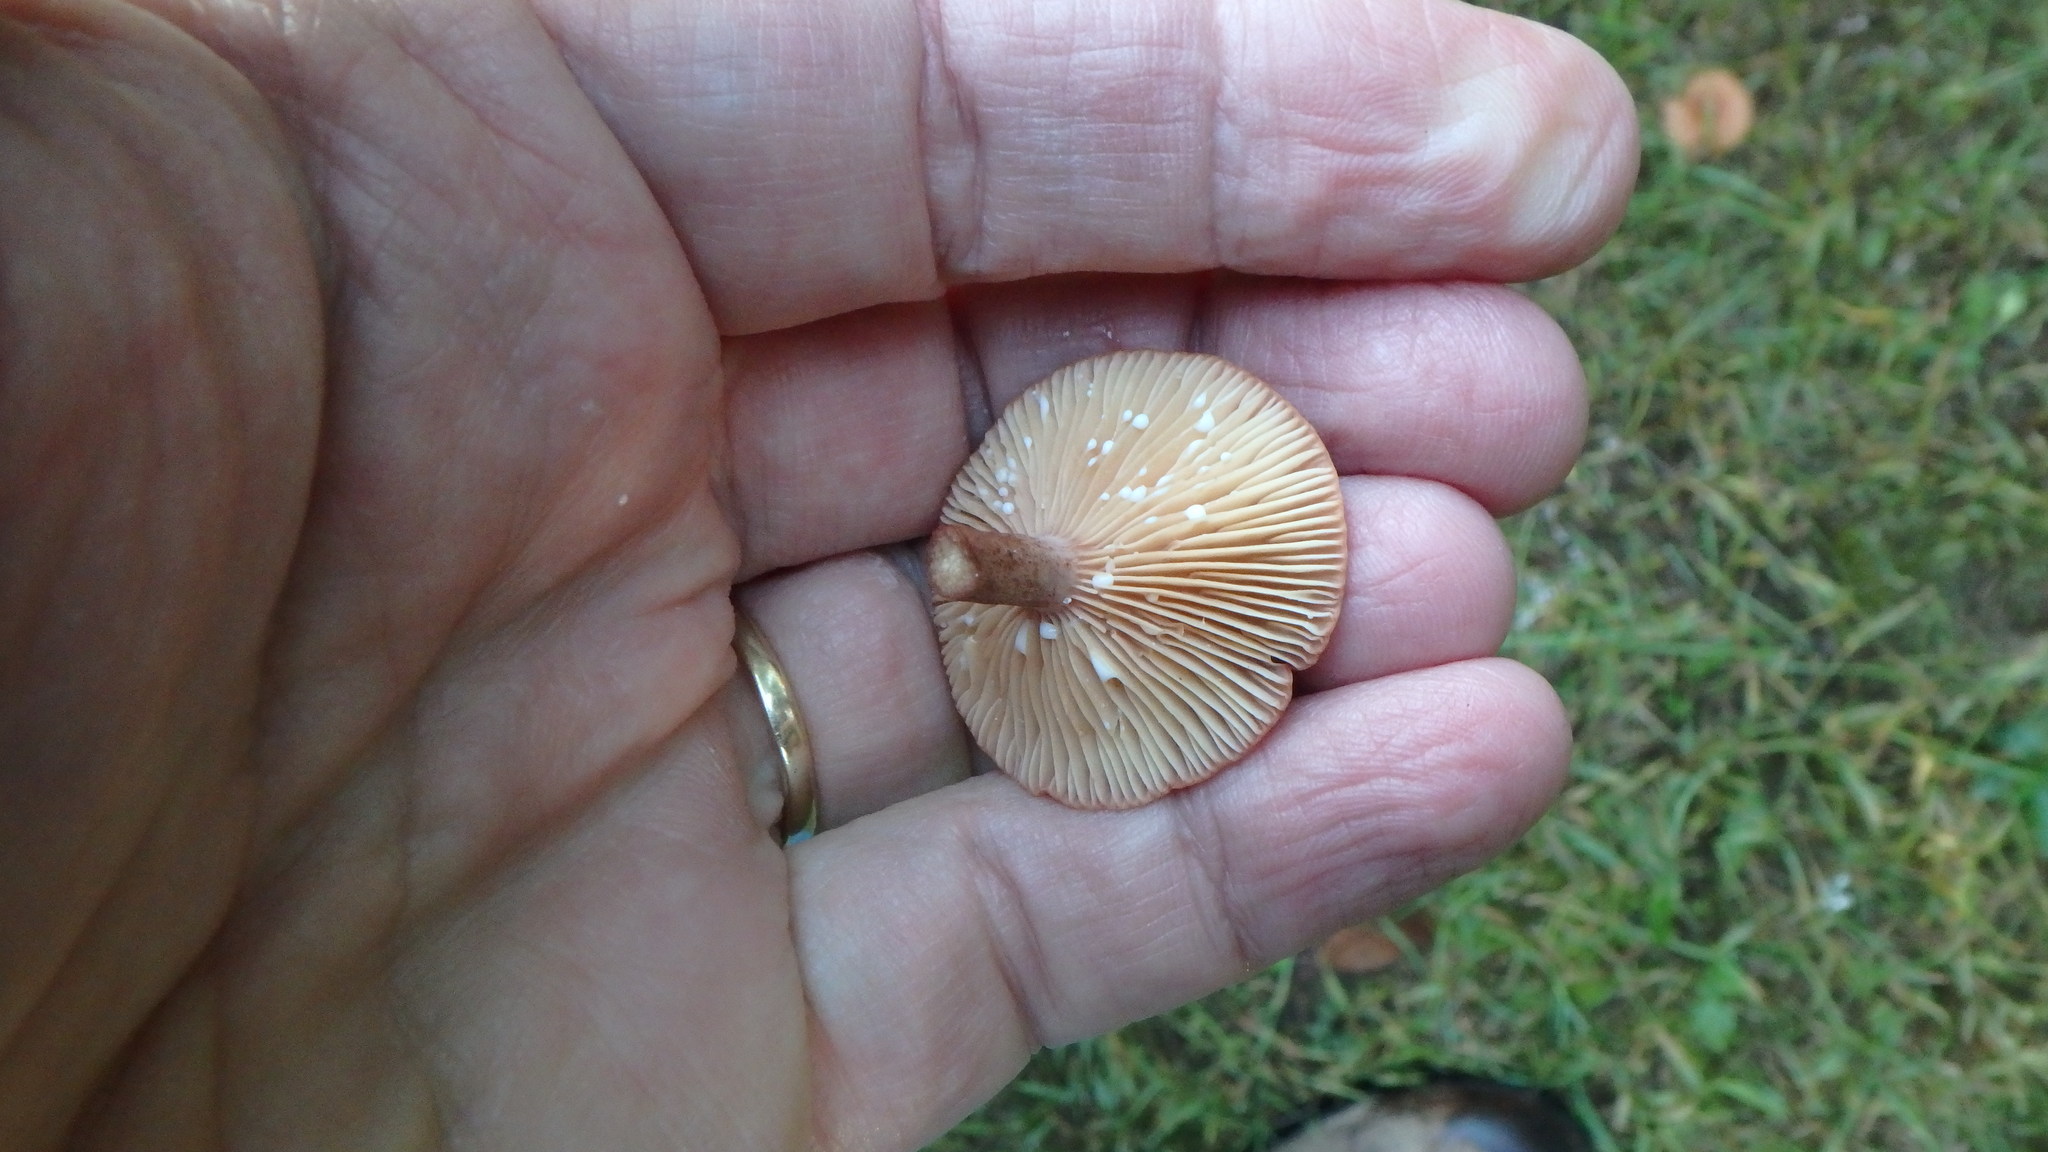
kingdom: Fungi
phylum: Basidiomycota
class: Agaricomycetes
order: Russulales
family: Russulaceae
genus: Lactarius
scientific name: Lactarius subdulcis
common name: Mild milkcap
